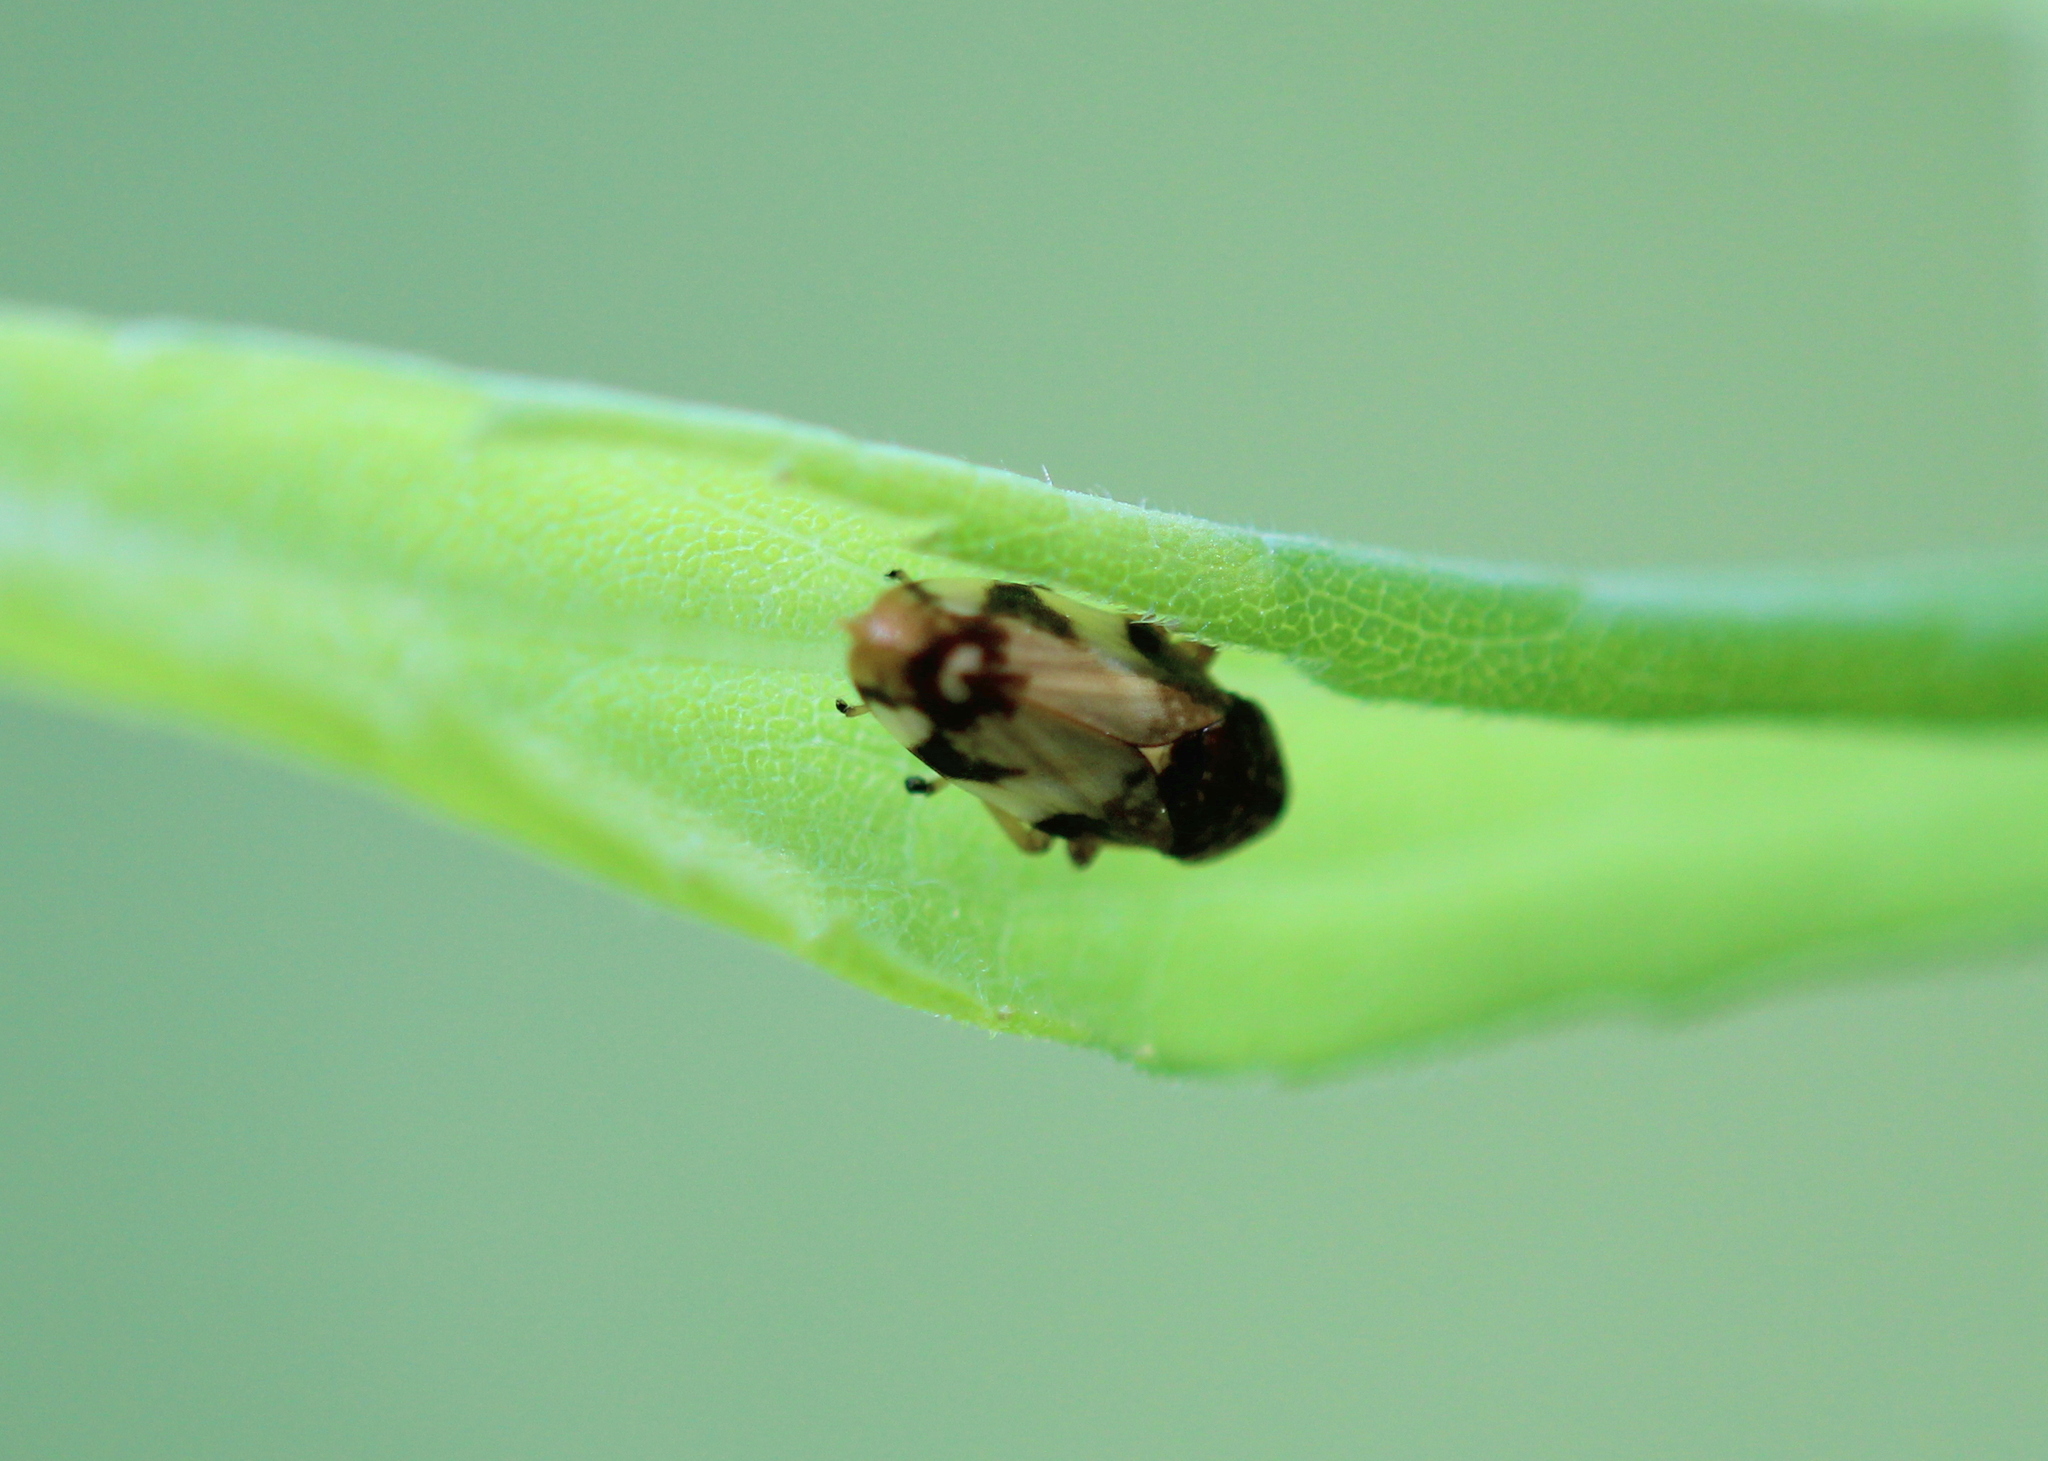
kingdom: Animalia
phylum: Arthropoda
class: Insecta
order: Hemiptera
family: Aphrophoridae
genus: Philaenus
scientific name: Philaenus spumarius
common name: Meadow spittlebug
